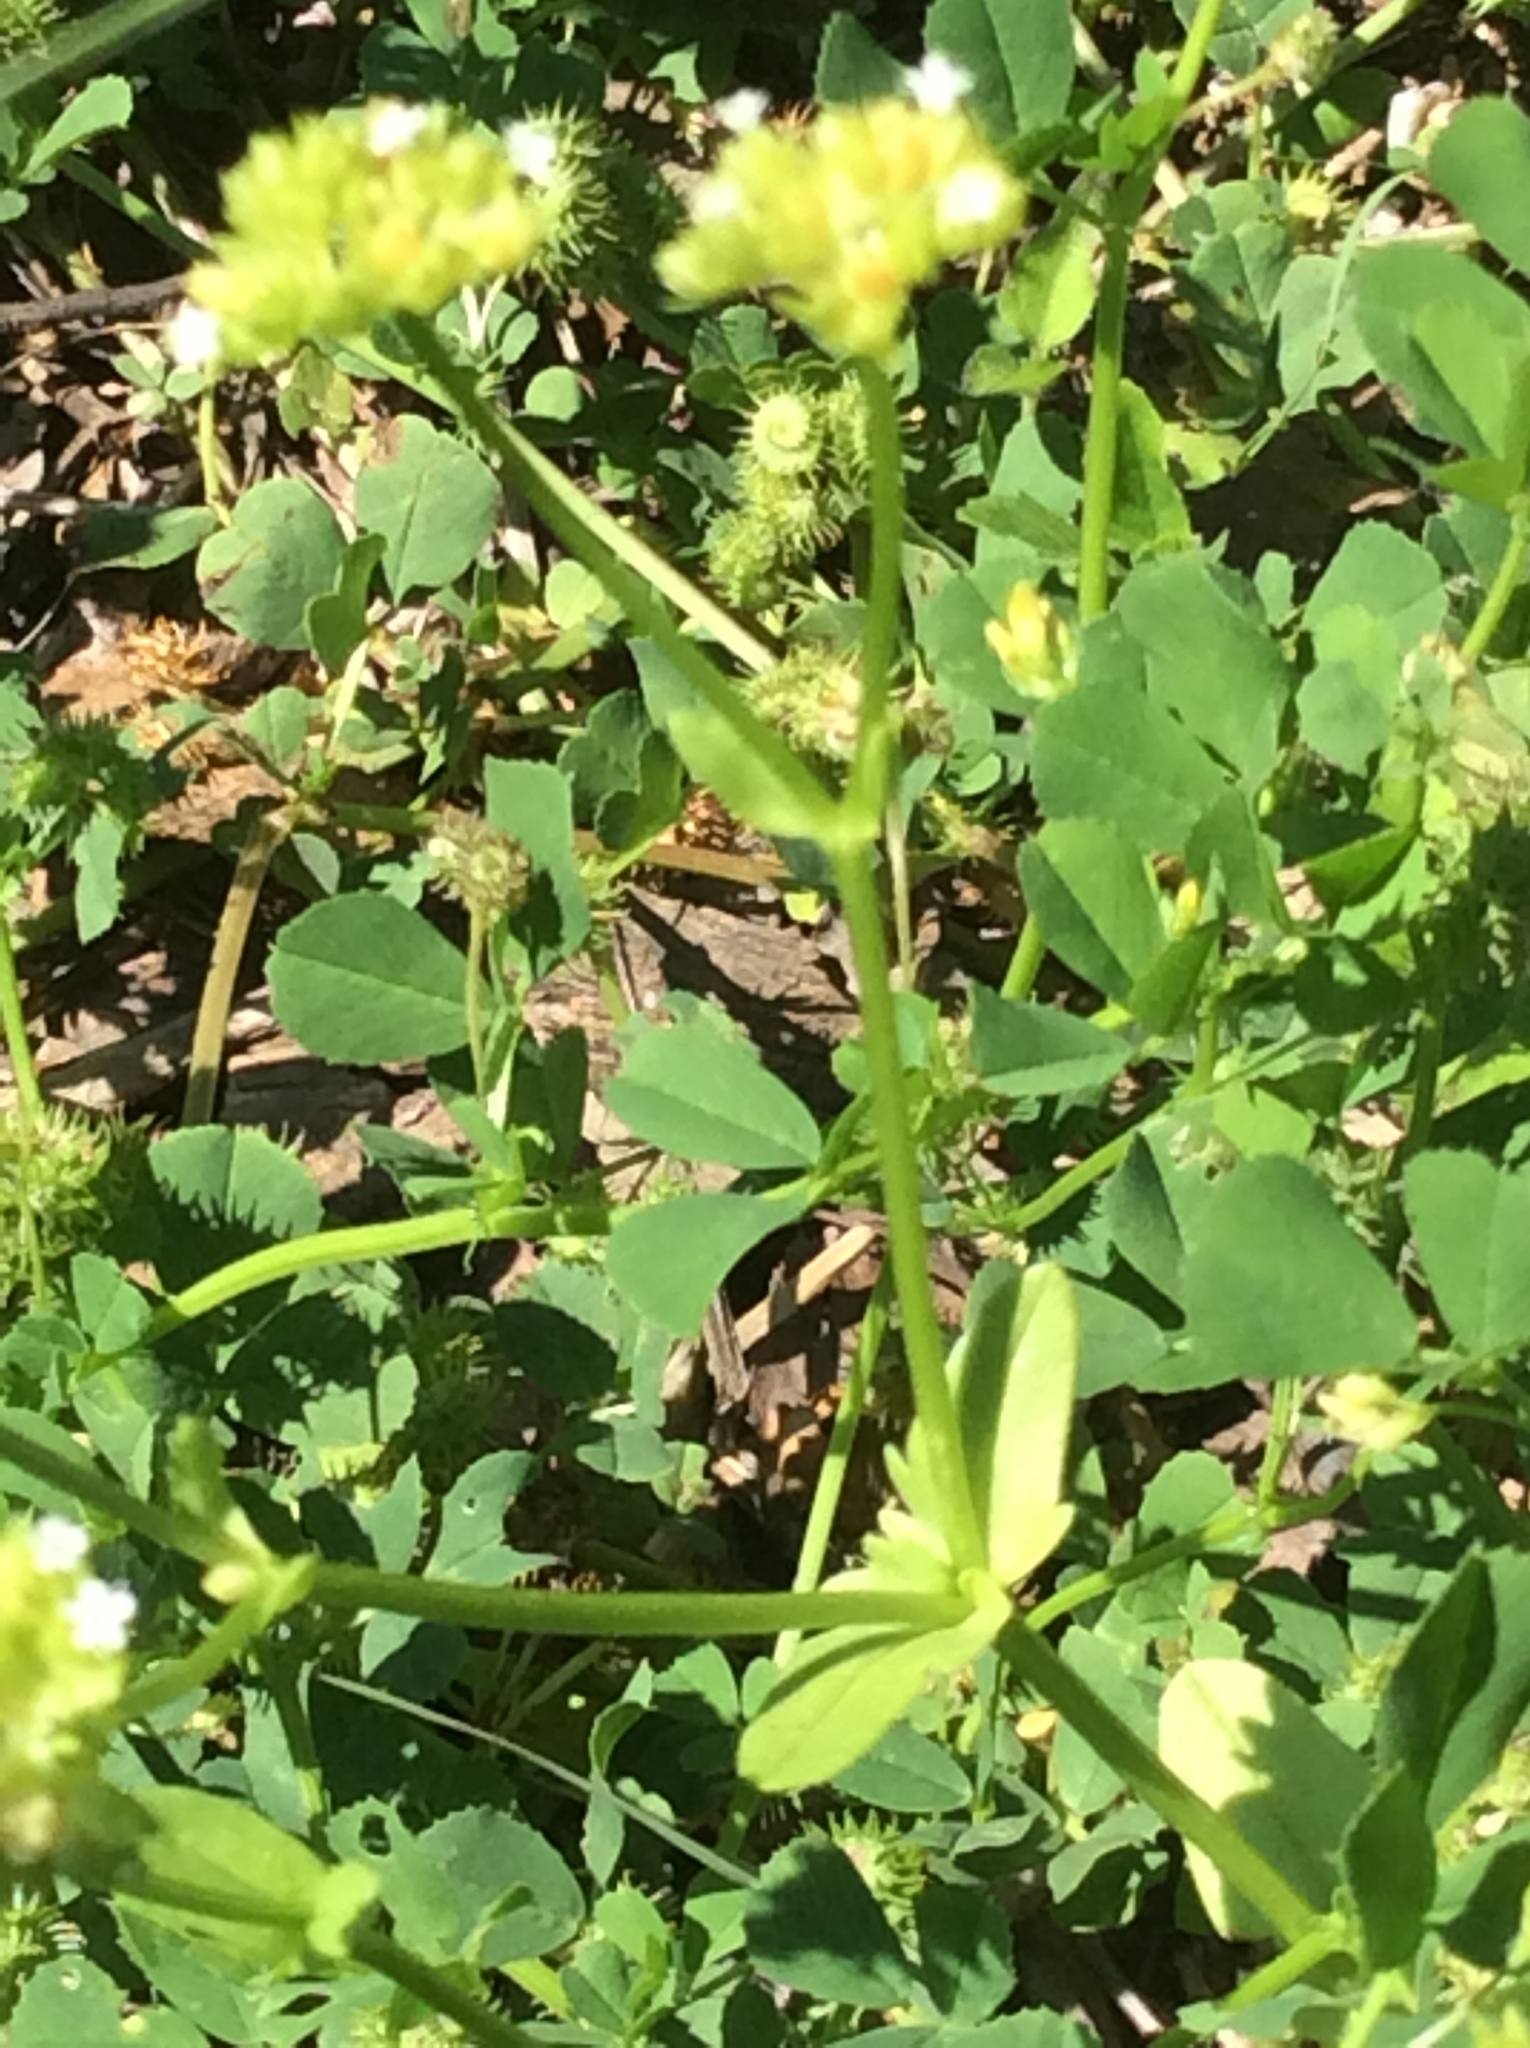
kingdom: Plantae
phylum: Tracheophyta
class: Magnoliopsida
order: Dipsacales
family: Caprifoliaceae
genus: Valerianella
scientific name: Valerianella radiata
